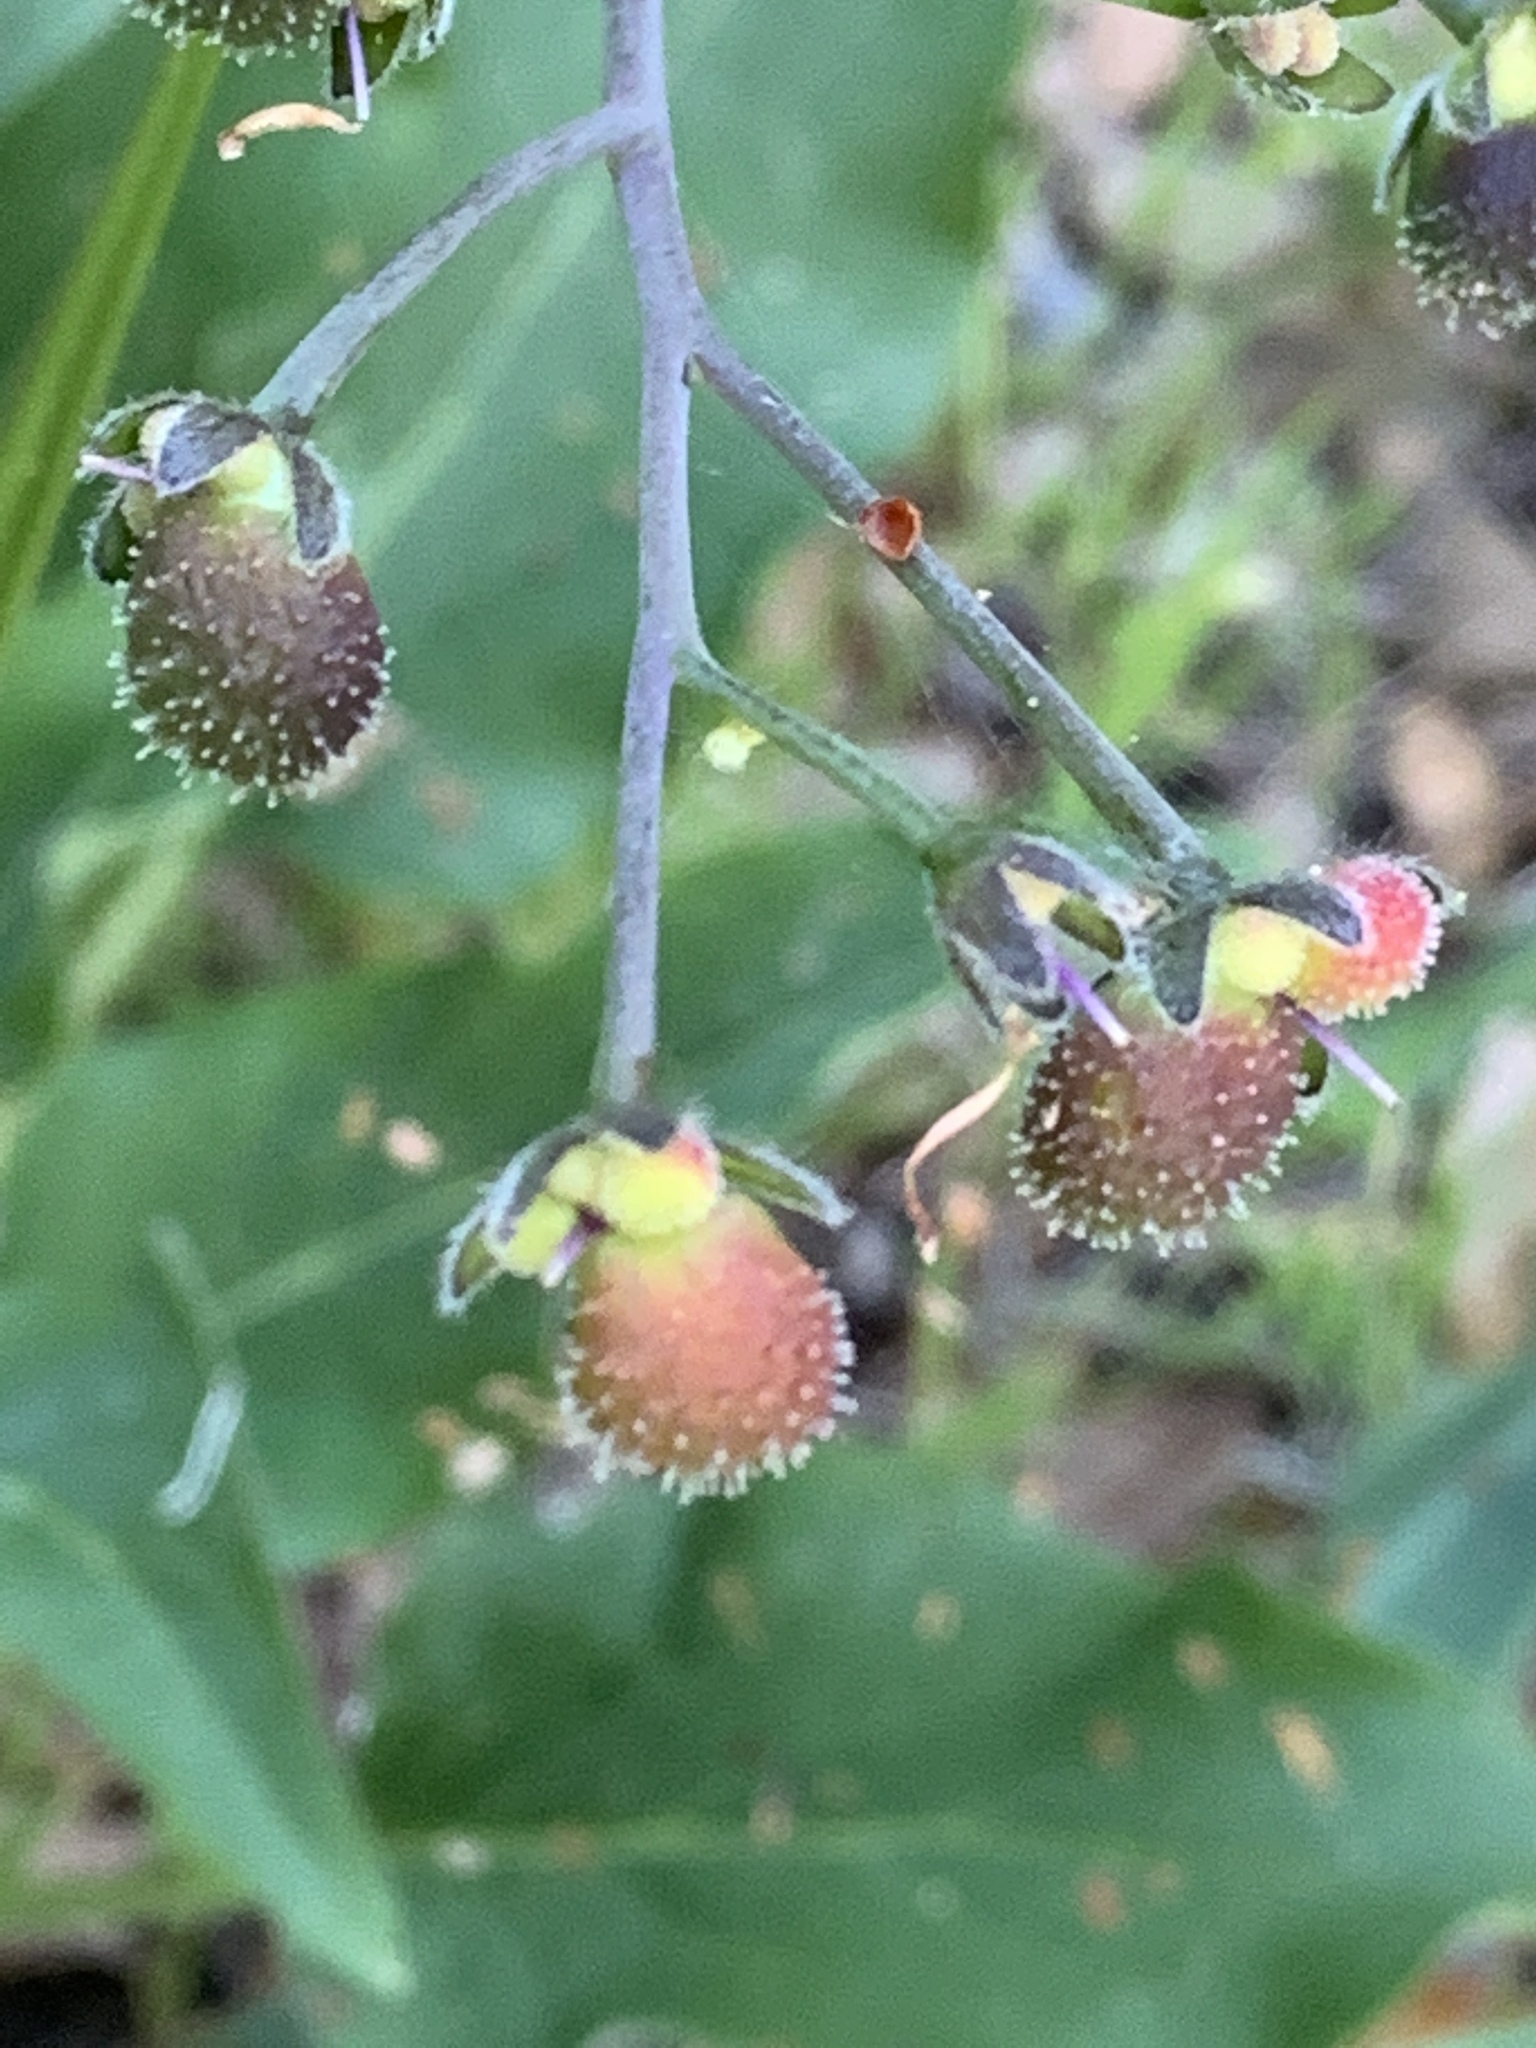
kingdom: Plantae
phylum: Tracheophyta
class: Liliopsida
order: Asparagales
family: Asparagaceae
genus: Chlorogalum
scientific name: Chlorogalum pomeridianum
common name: Amole
